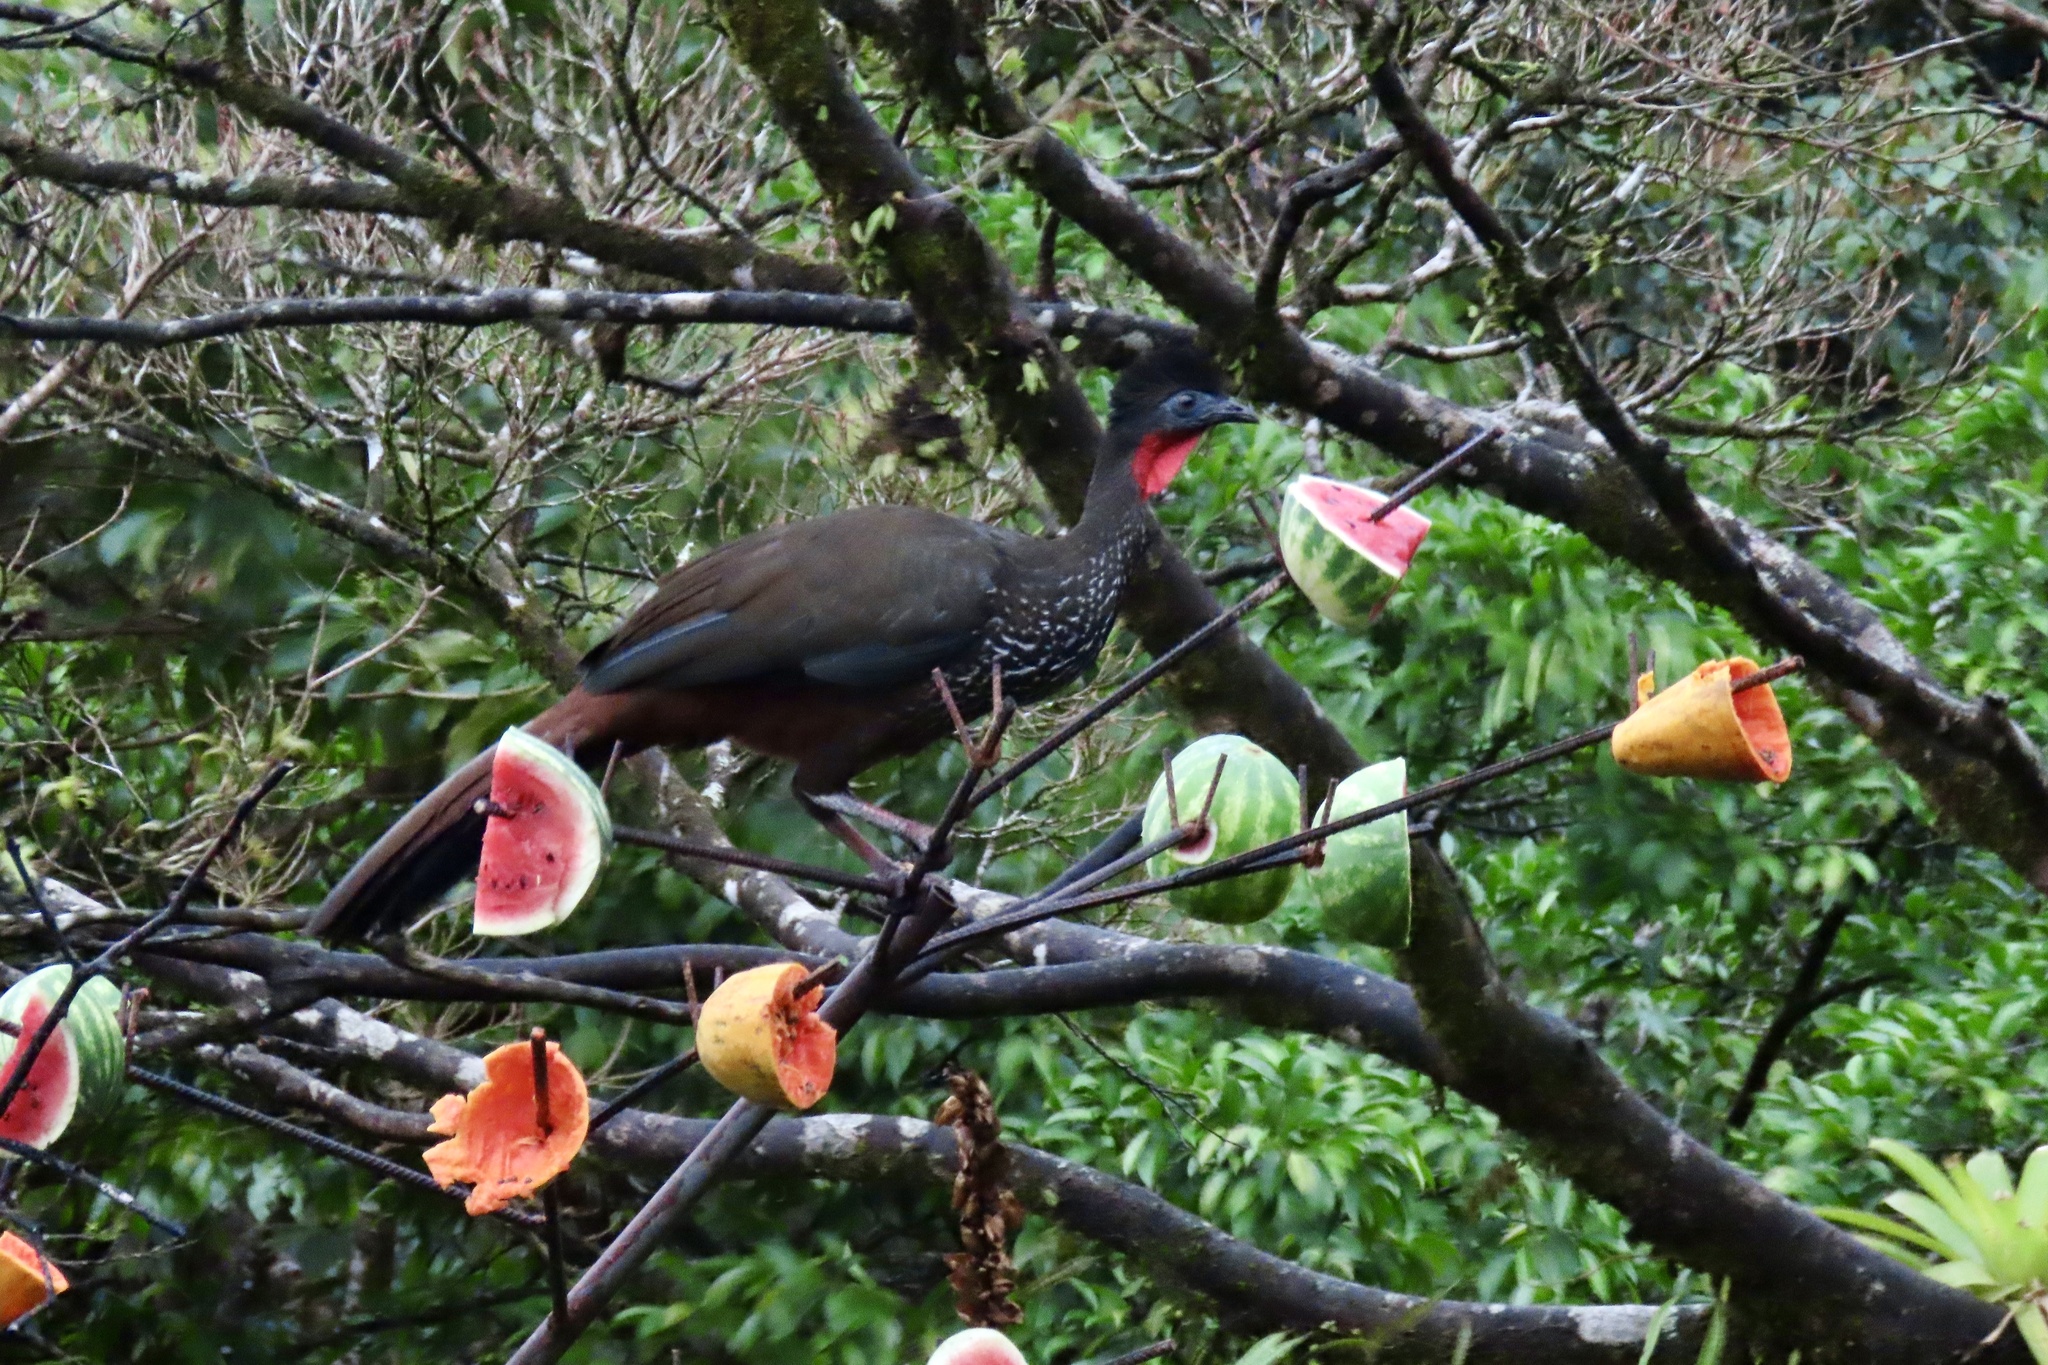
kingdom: Animalia
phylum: Chordata
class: Aves
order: Galliformes
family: Cracidae
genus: Penelope
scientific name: Penelope purpurascens
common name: Crested guan
